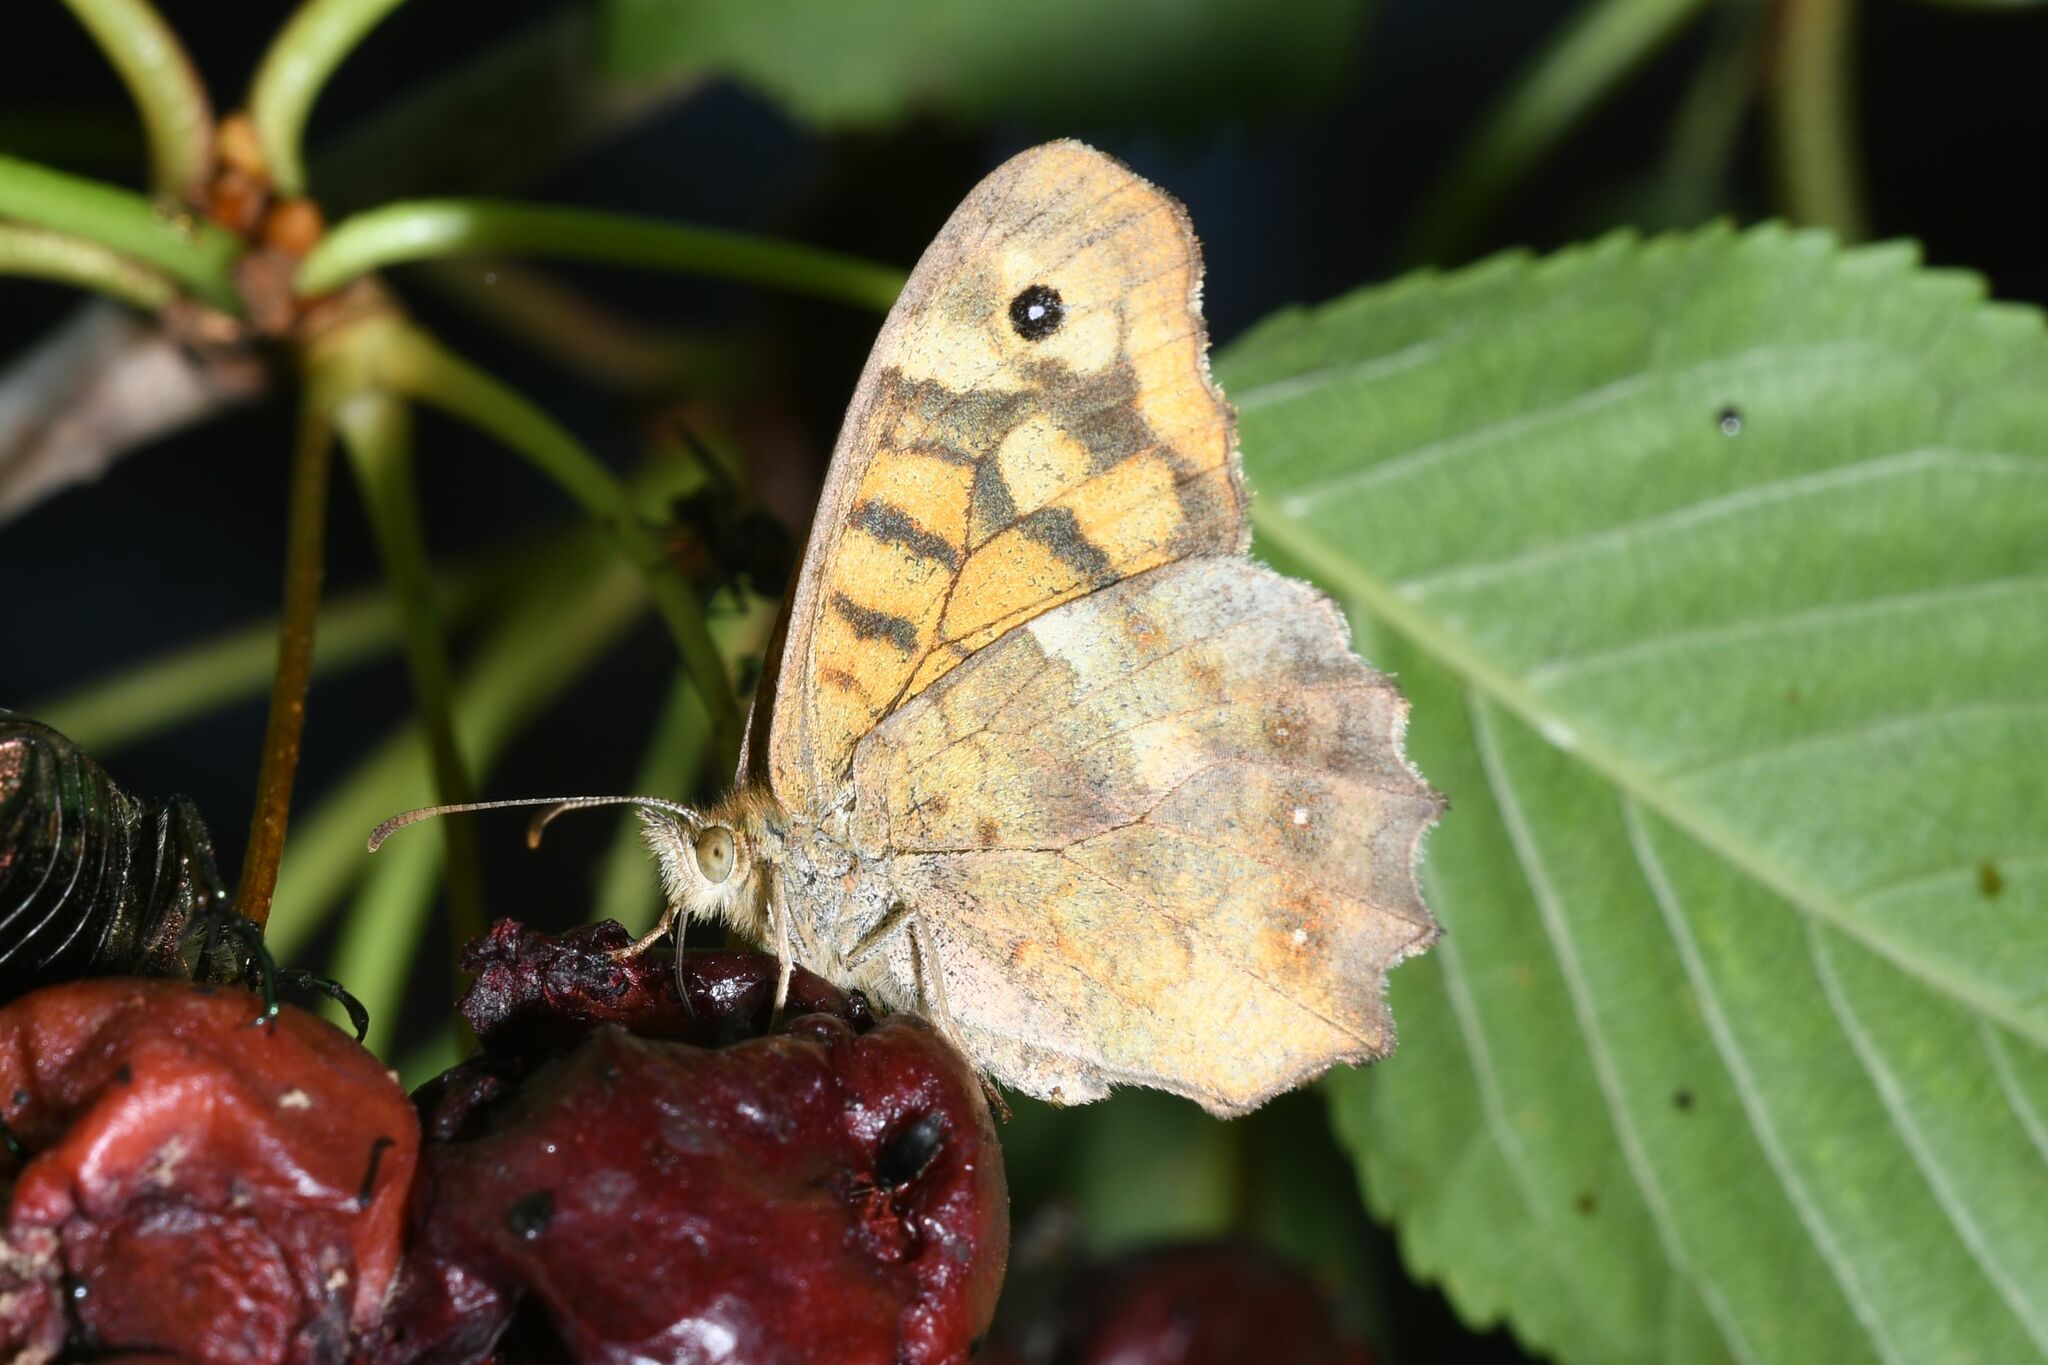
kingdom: Animalia
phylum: Arthropoda
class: Insecta
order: Lepidoptera
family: Nymphalidae
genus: Pararge
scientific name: Pararge aegeria
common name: Speckled wood
